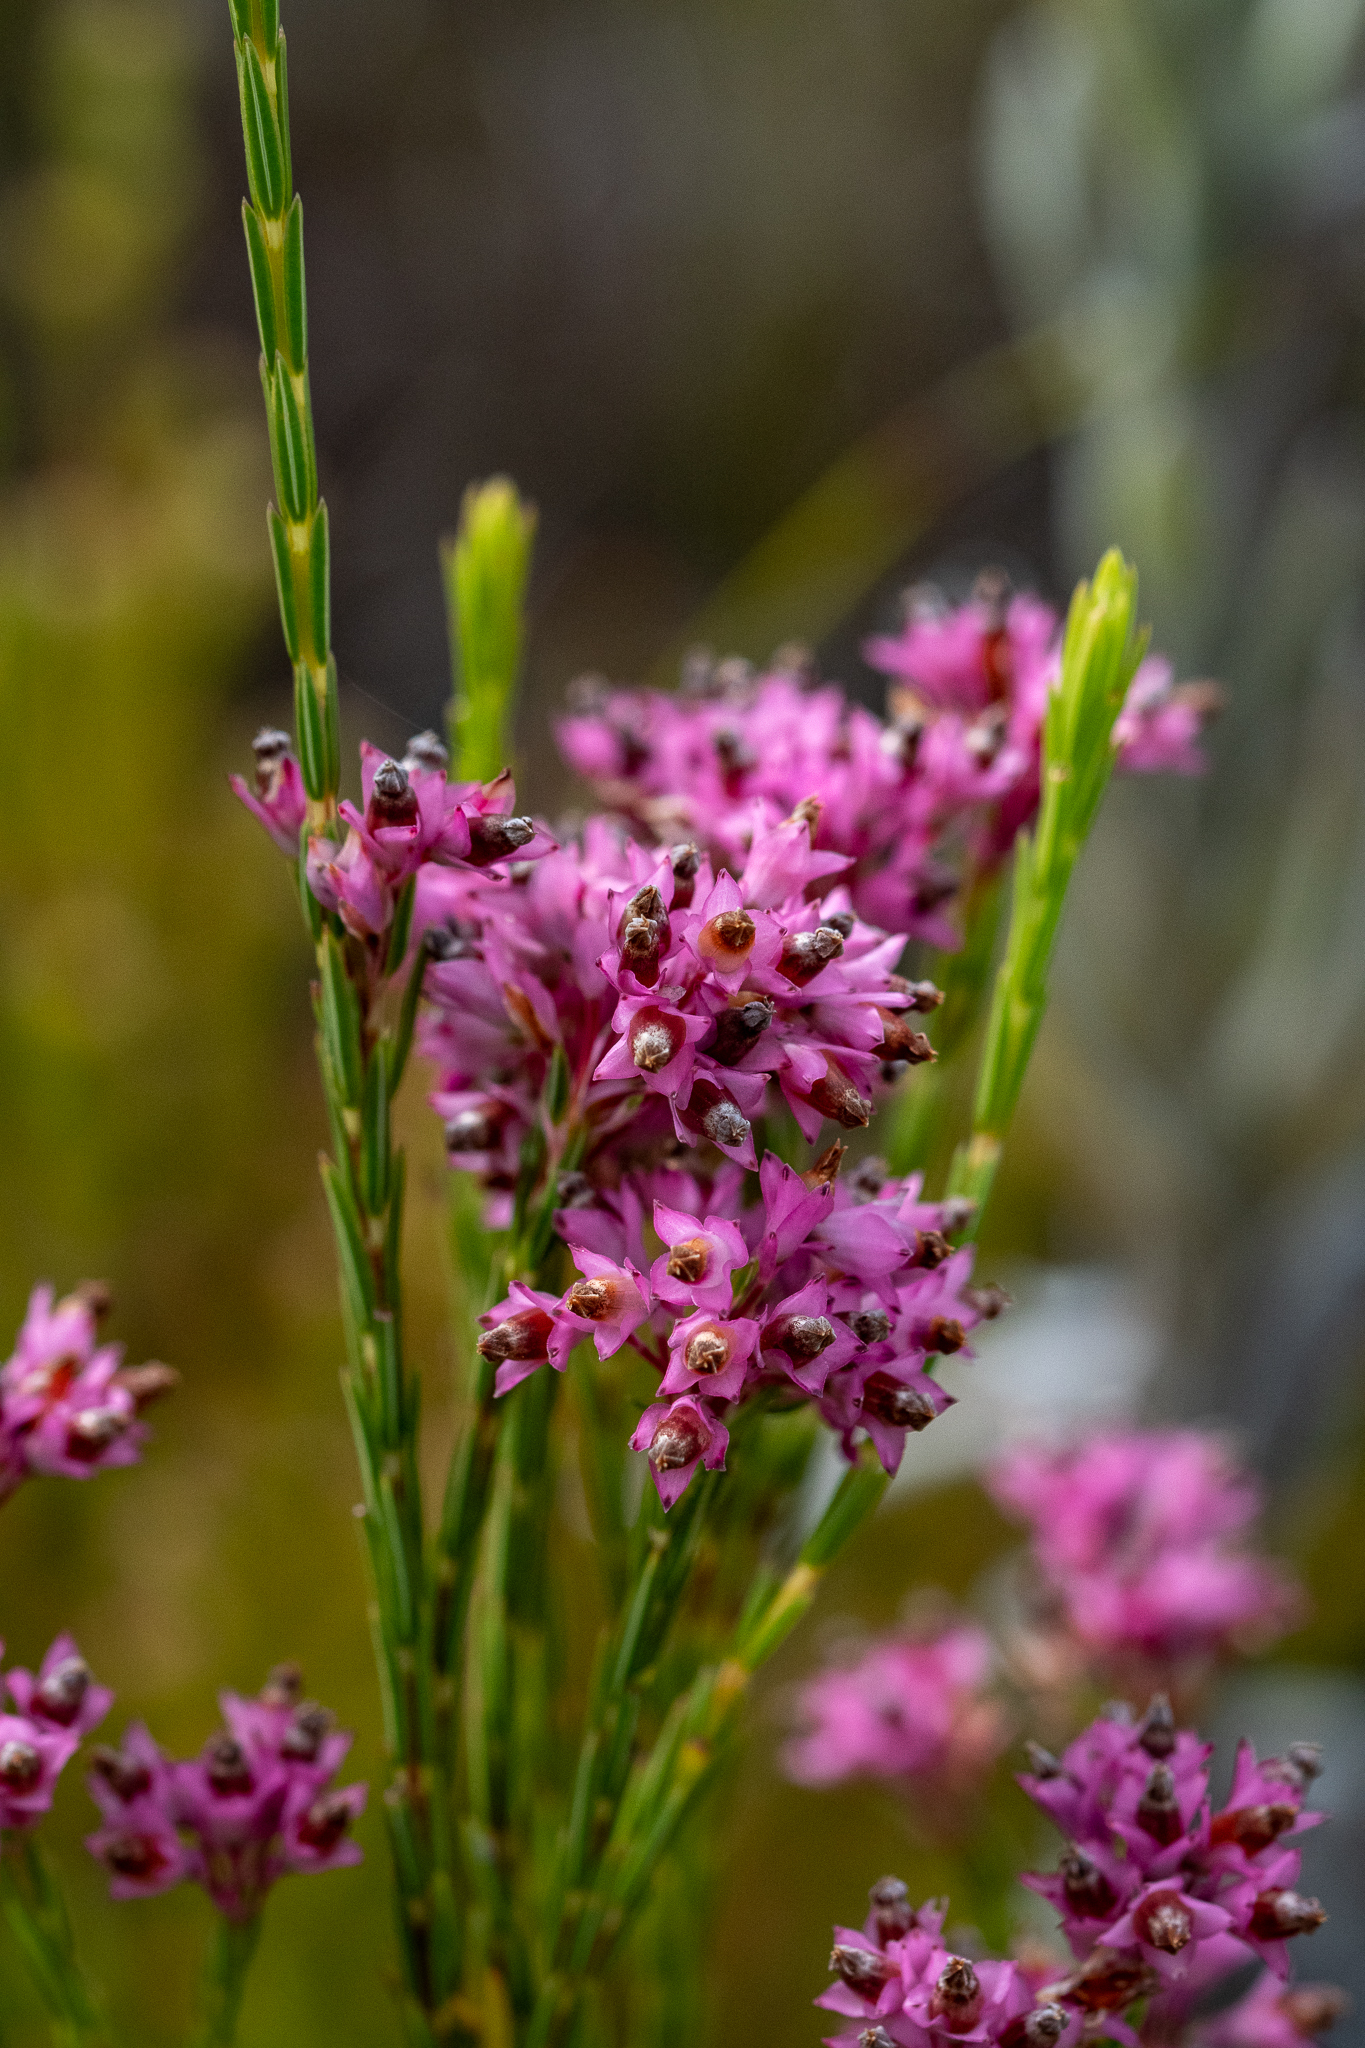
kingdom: Plantae
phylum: Tracheophyta
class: Magnoliopsida
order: Ericales
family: Ericaceae
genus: Erica
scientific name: Erica corifolia
